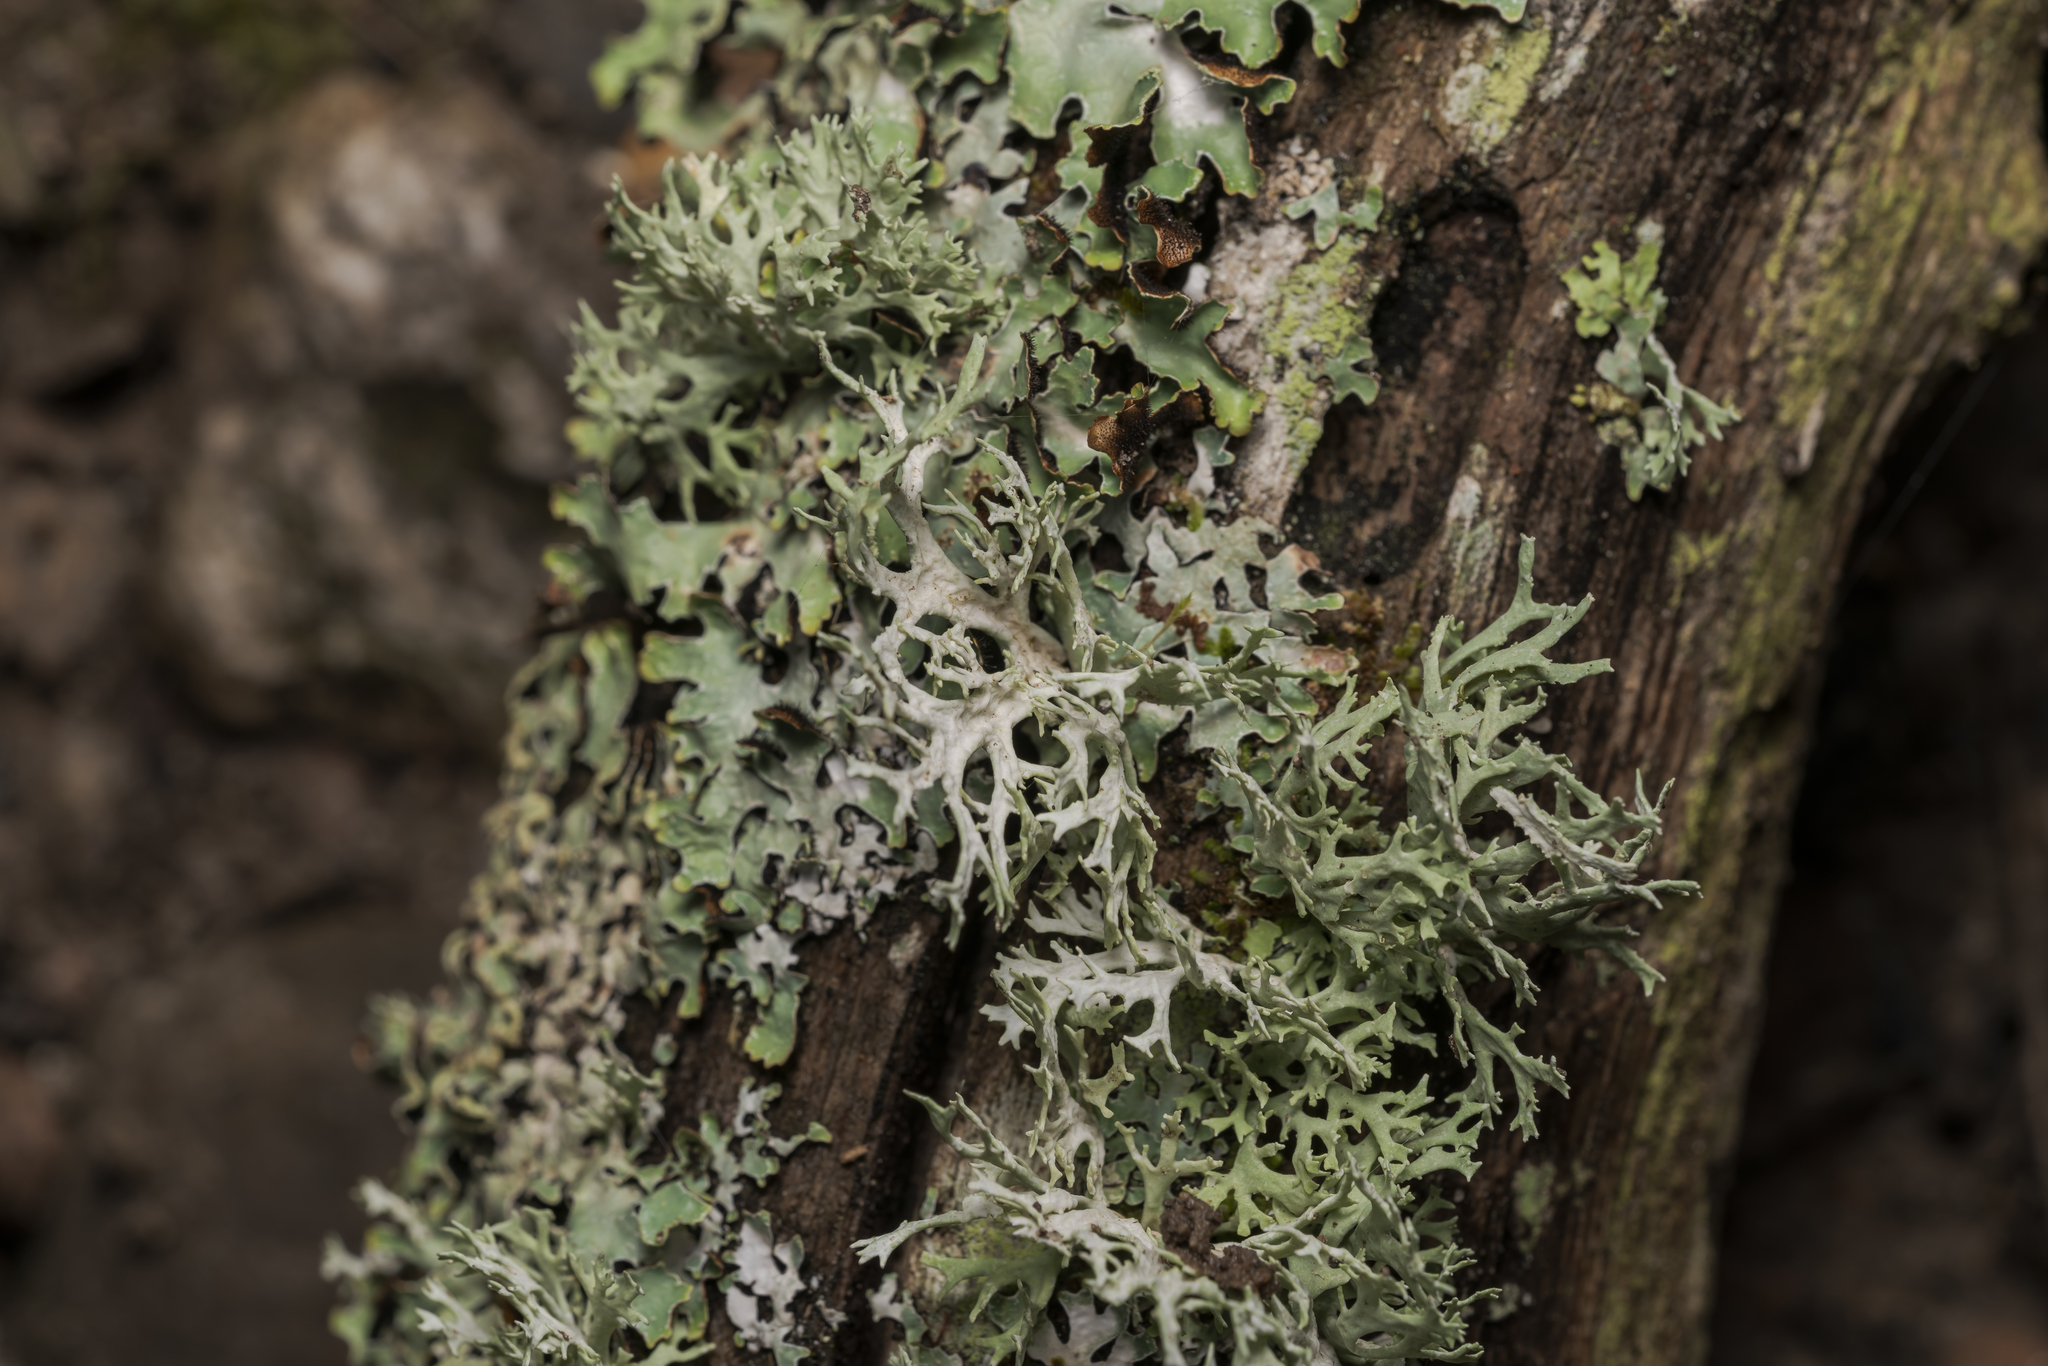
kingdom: Fungi
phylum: Ascomycota
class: Lecanoromycetes
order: Lecanorales
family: Parmeliaceae
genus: Evernia
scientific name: Evernia prunastri
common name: Oak moss
